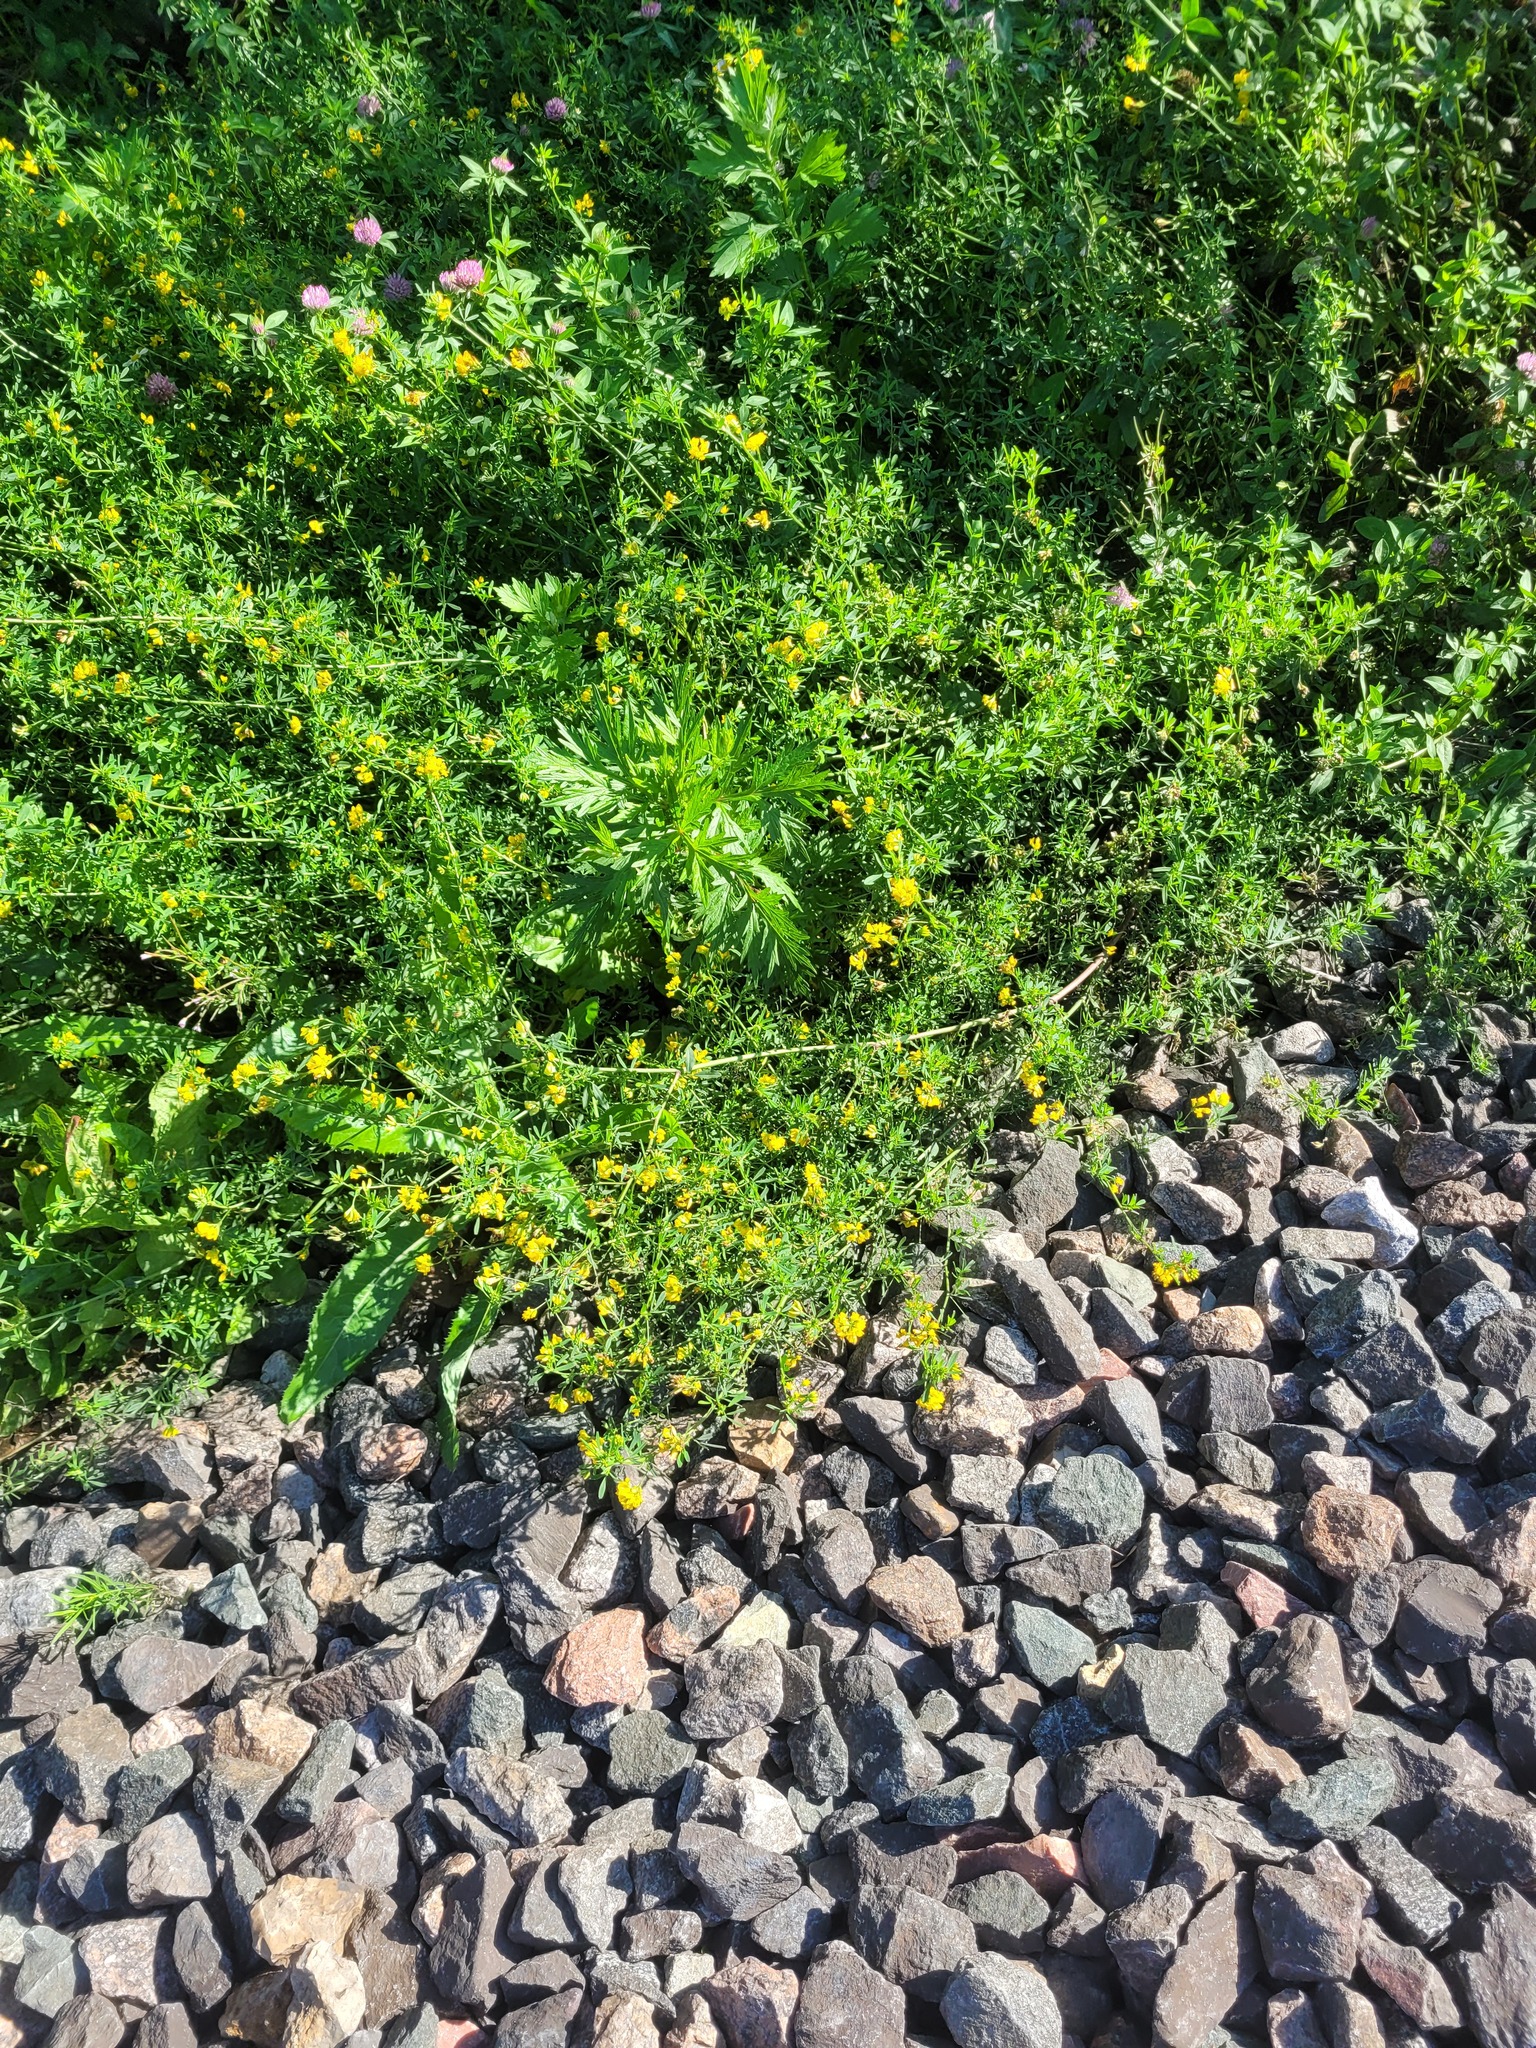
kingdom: Plantae
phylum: Tracheophyta
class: Magnoliopsida
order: Fabales
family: Fabaceae
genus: Medicago
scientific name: Medicago falcata
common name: Sickle medick
